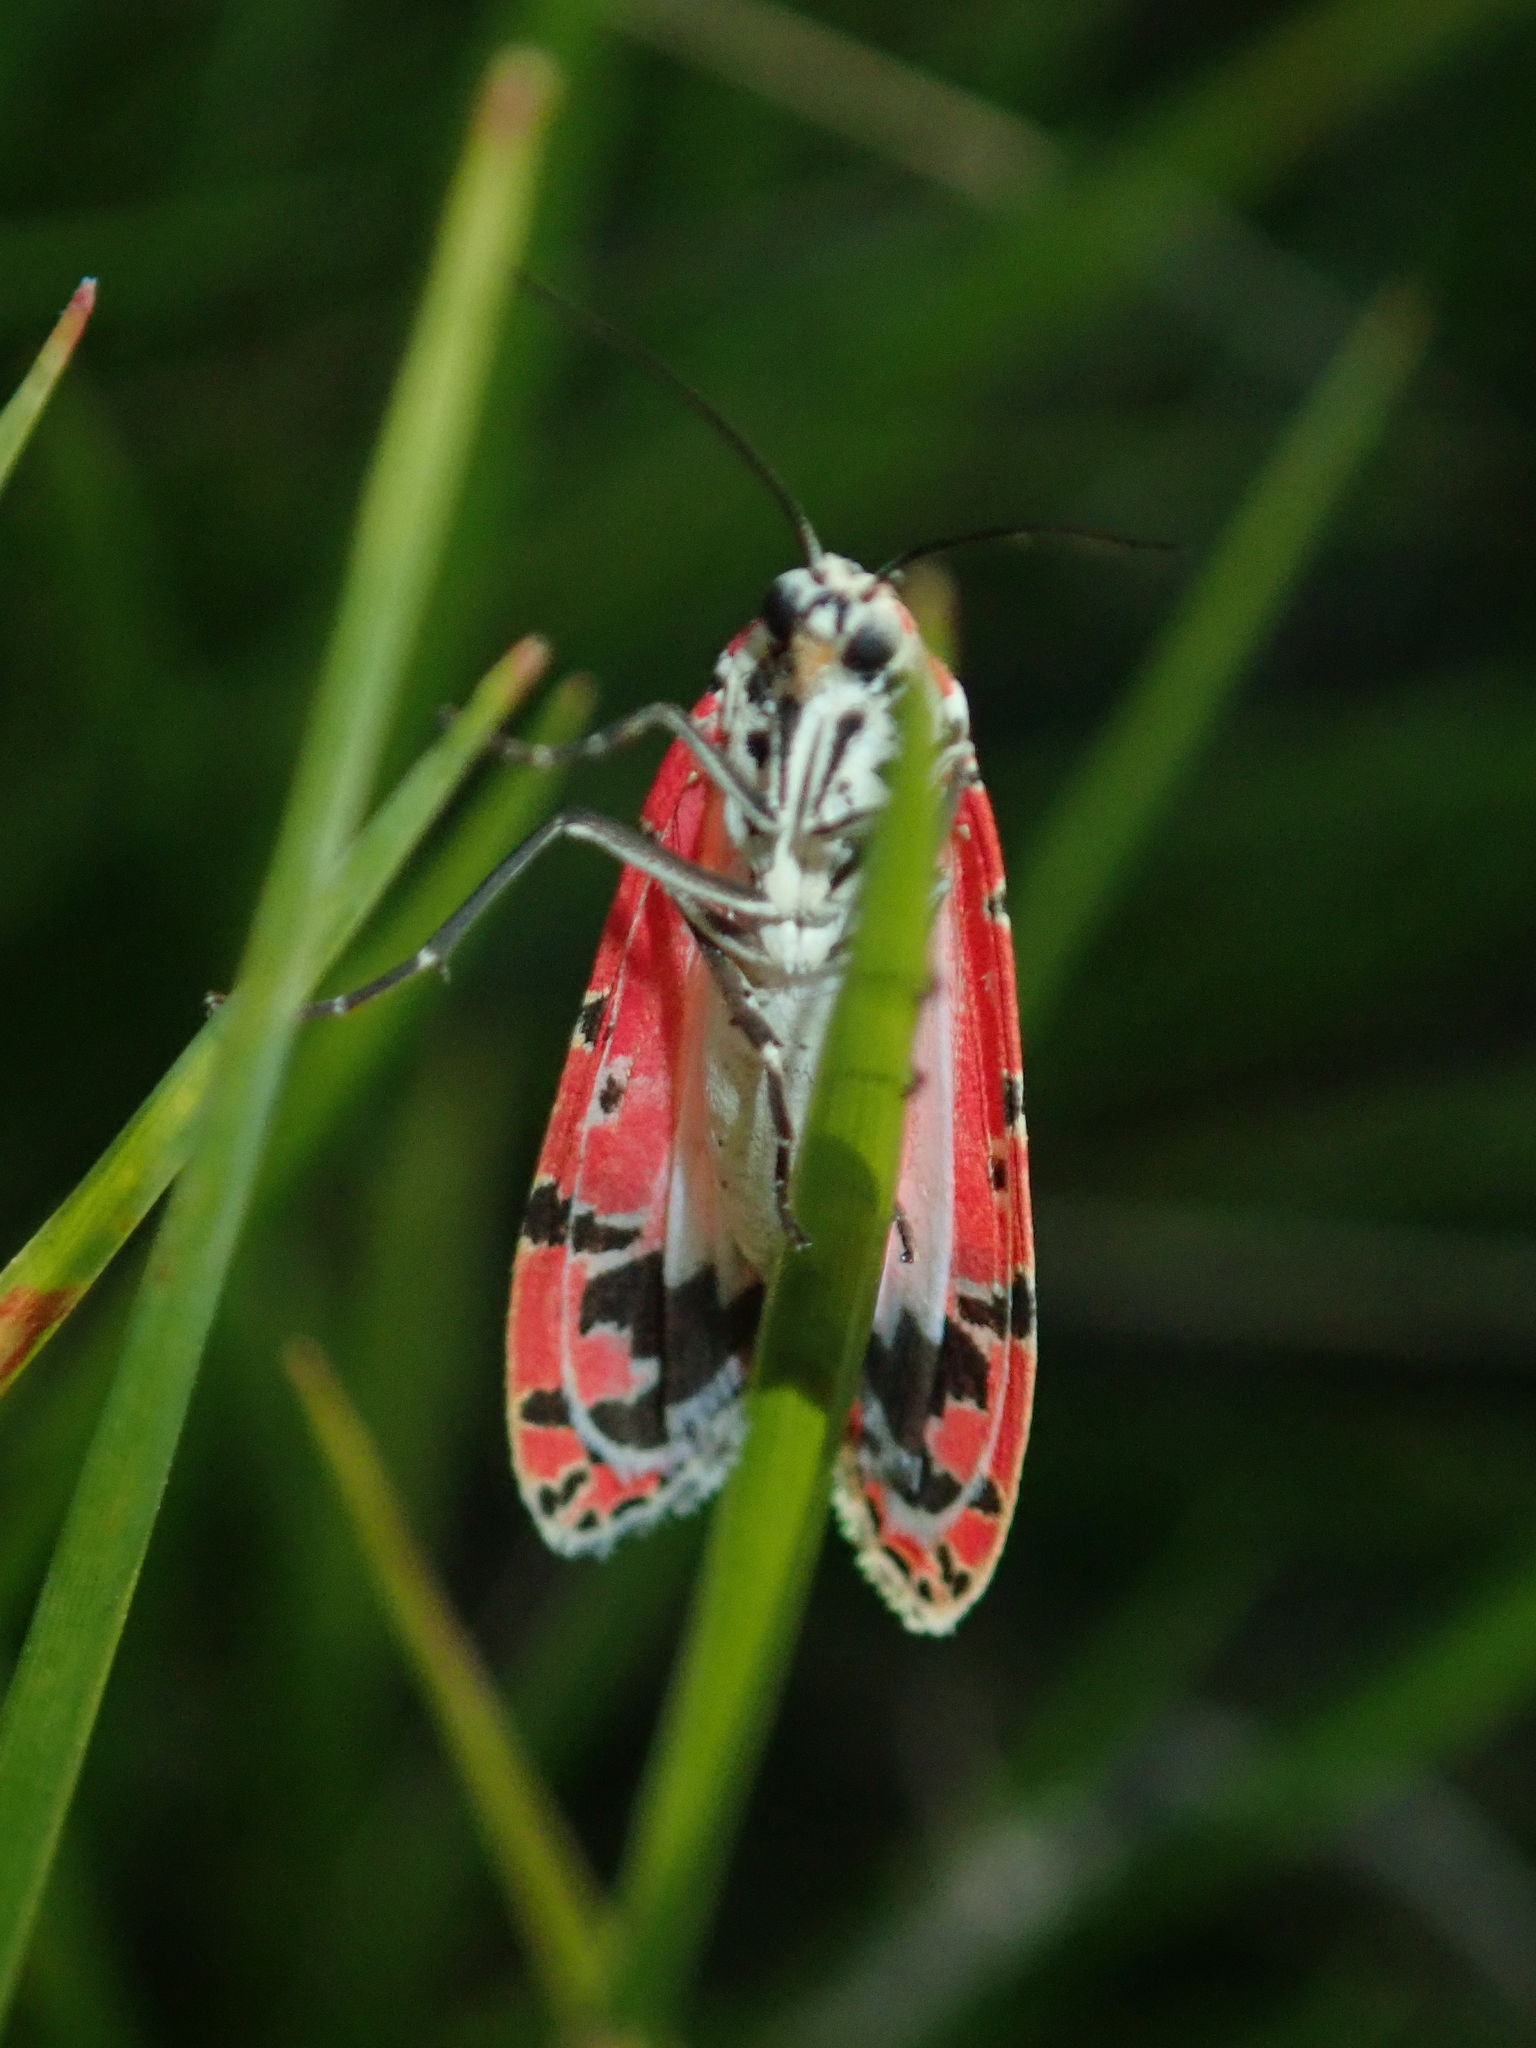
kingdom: Animalia
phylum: Arthropoda
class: Insecta
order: Lepidoptera
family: Erebidae
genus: Utetheisa
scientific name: Utetheisa ornatrix
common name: Beautiful utetheisa
